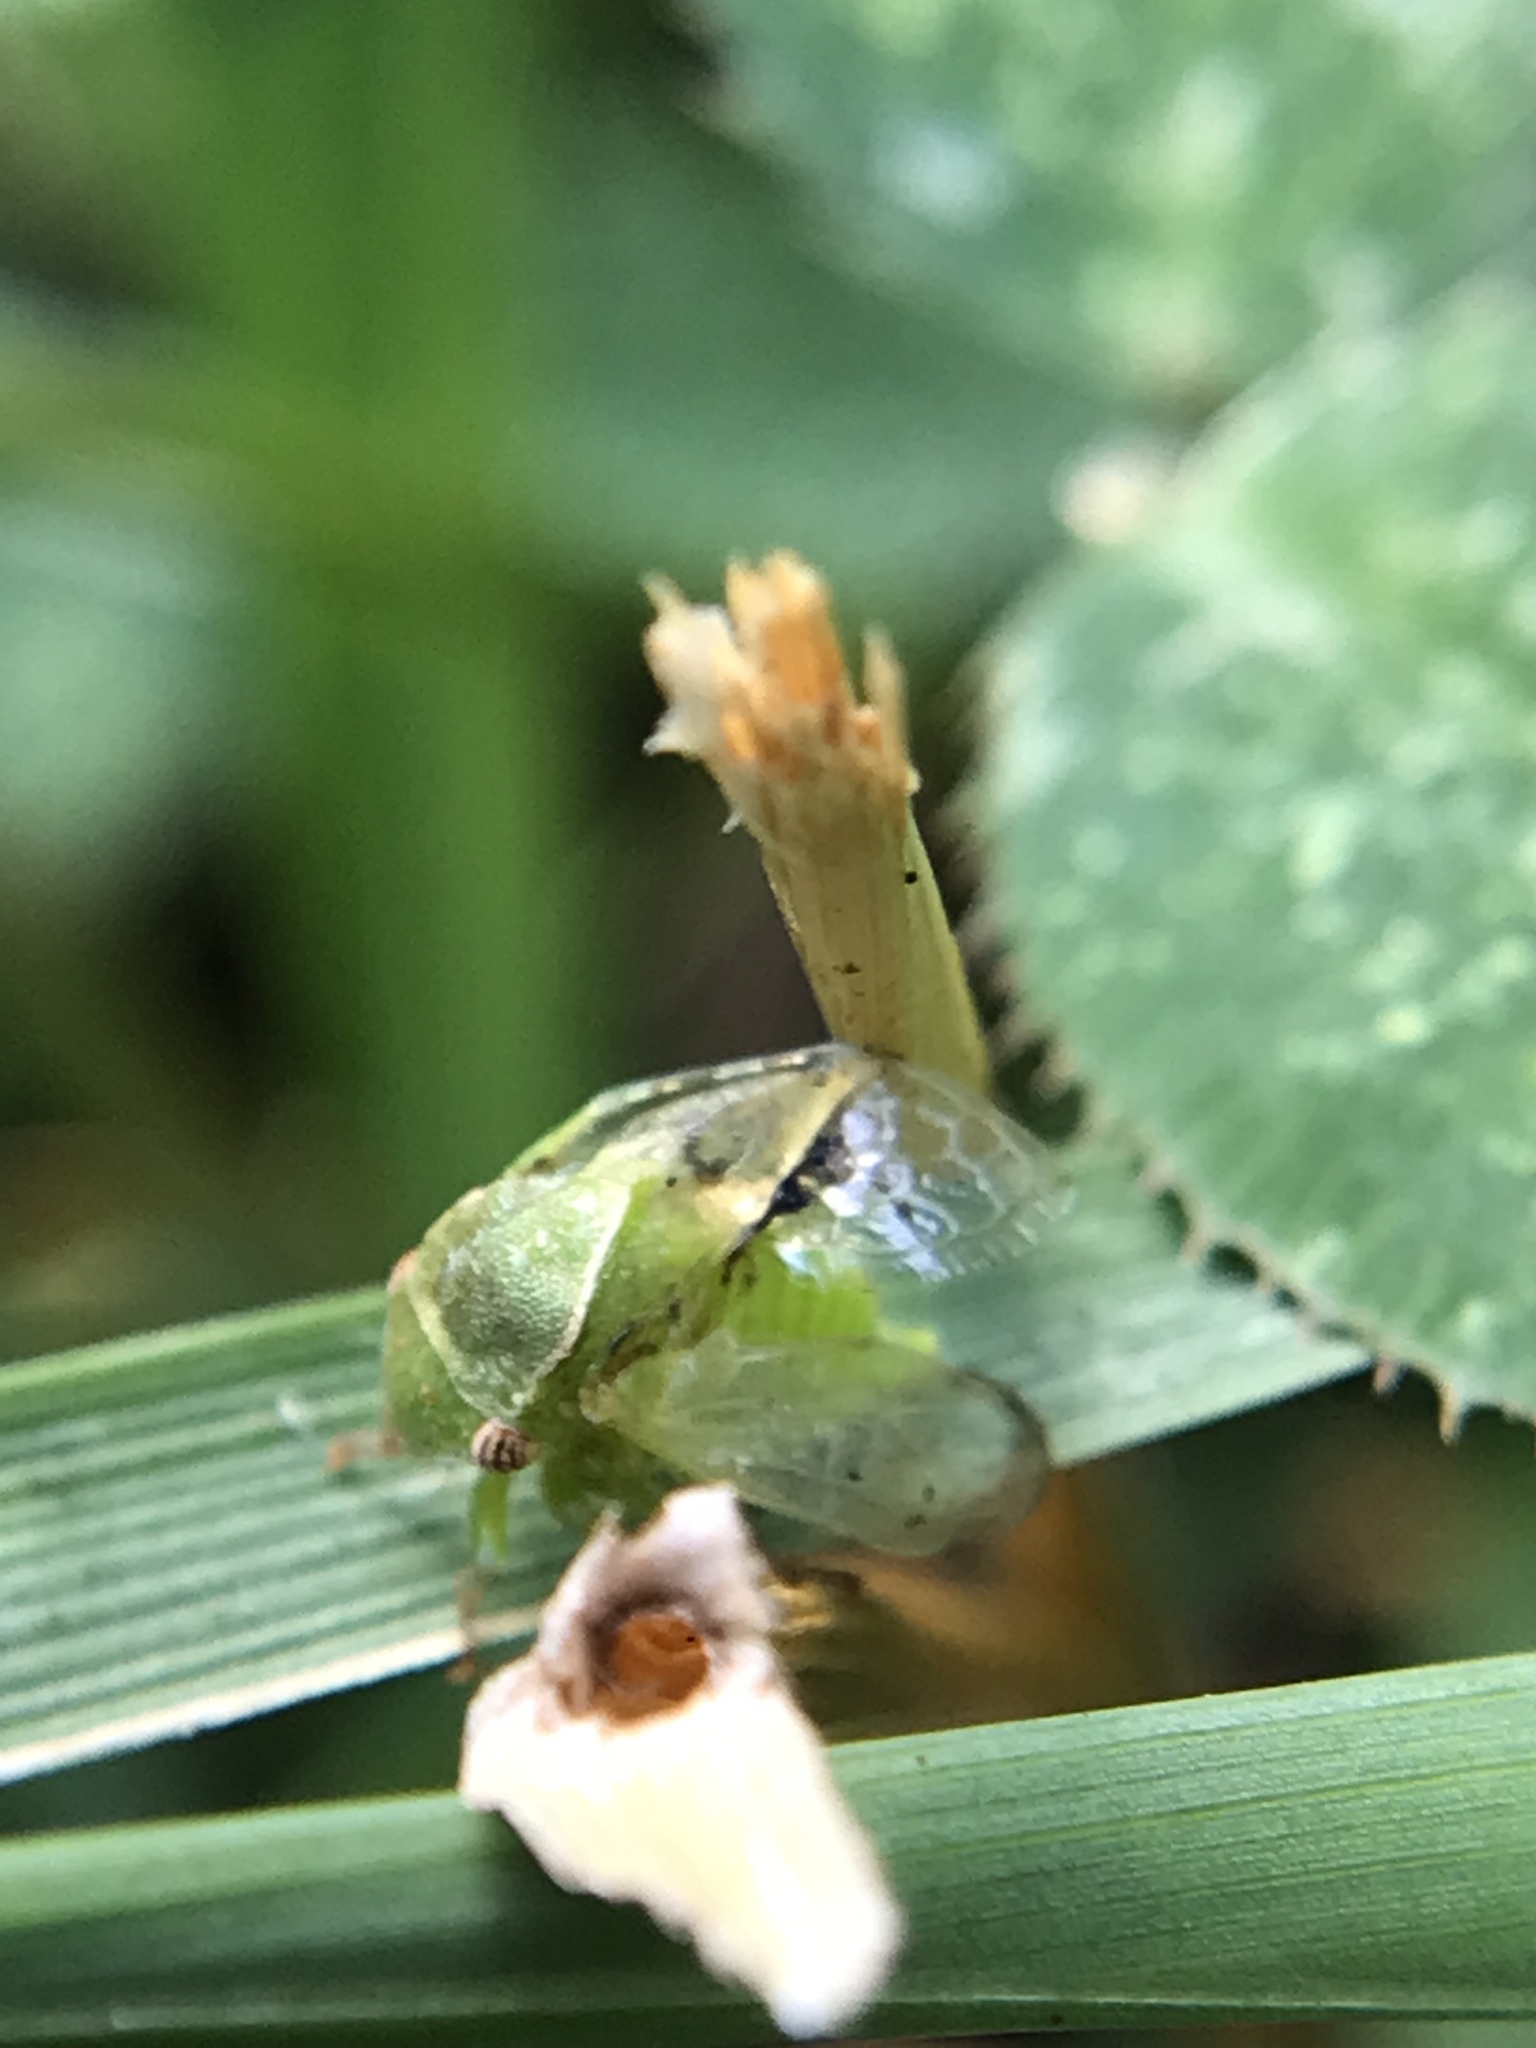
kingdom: Animalia
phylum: Arthropoda
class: Insecta
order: Hemiptera
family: Membracidae
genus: Spissistilus
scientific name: Spissistilus festina
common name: Membracid bug
